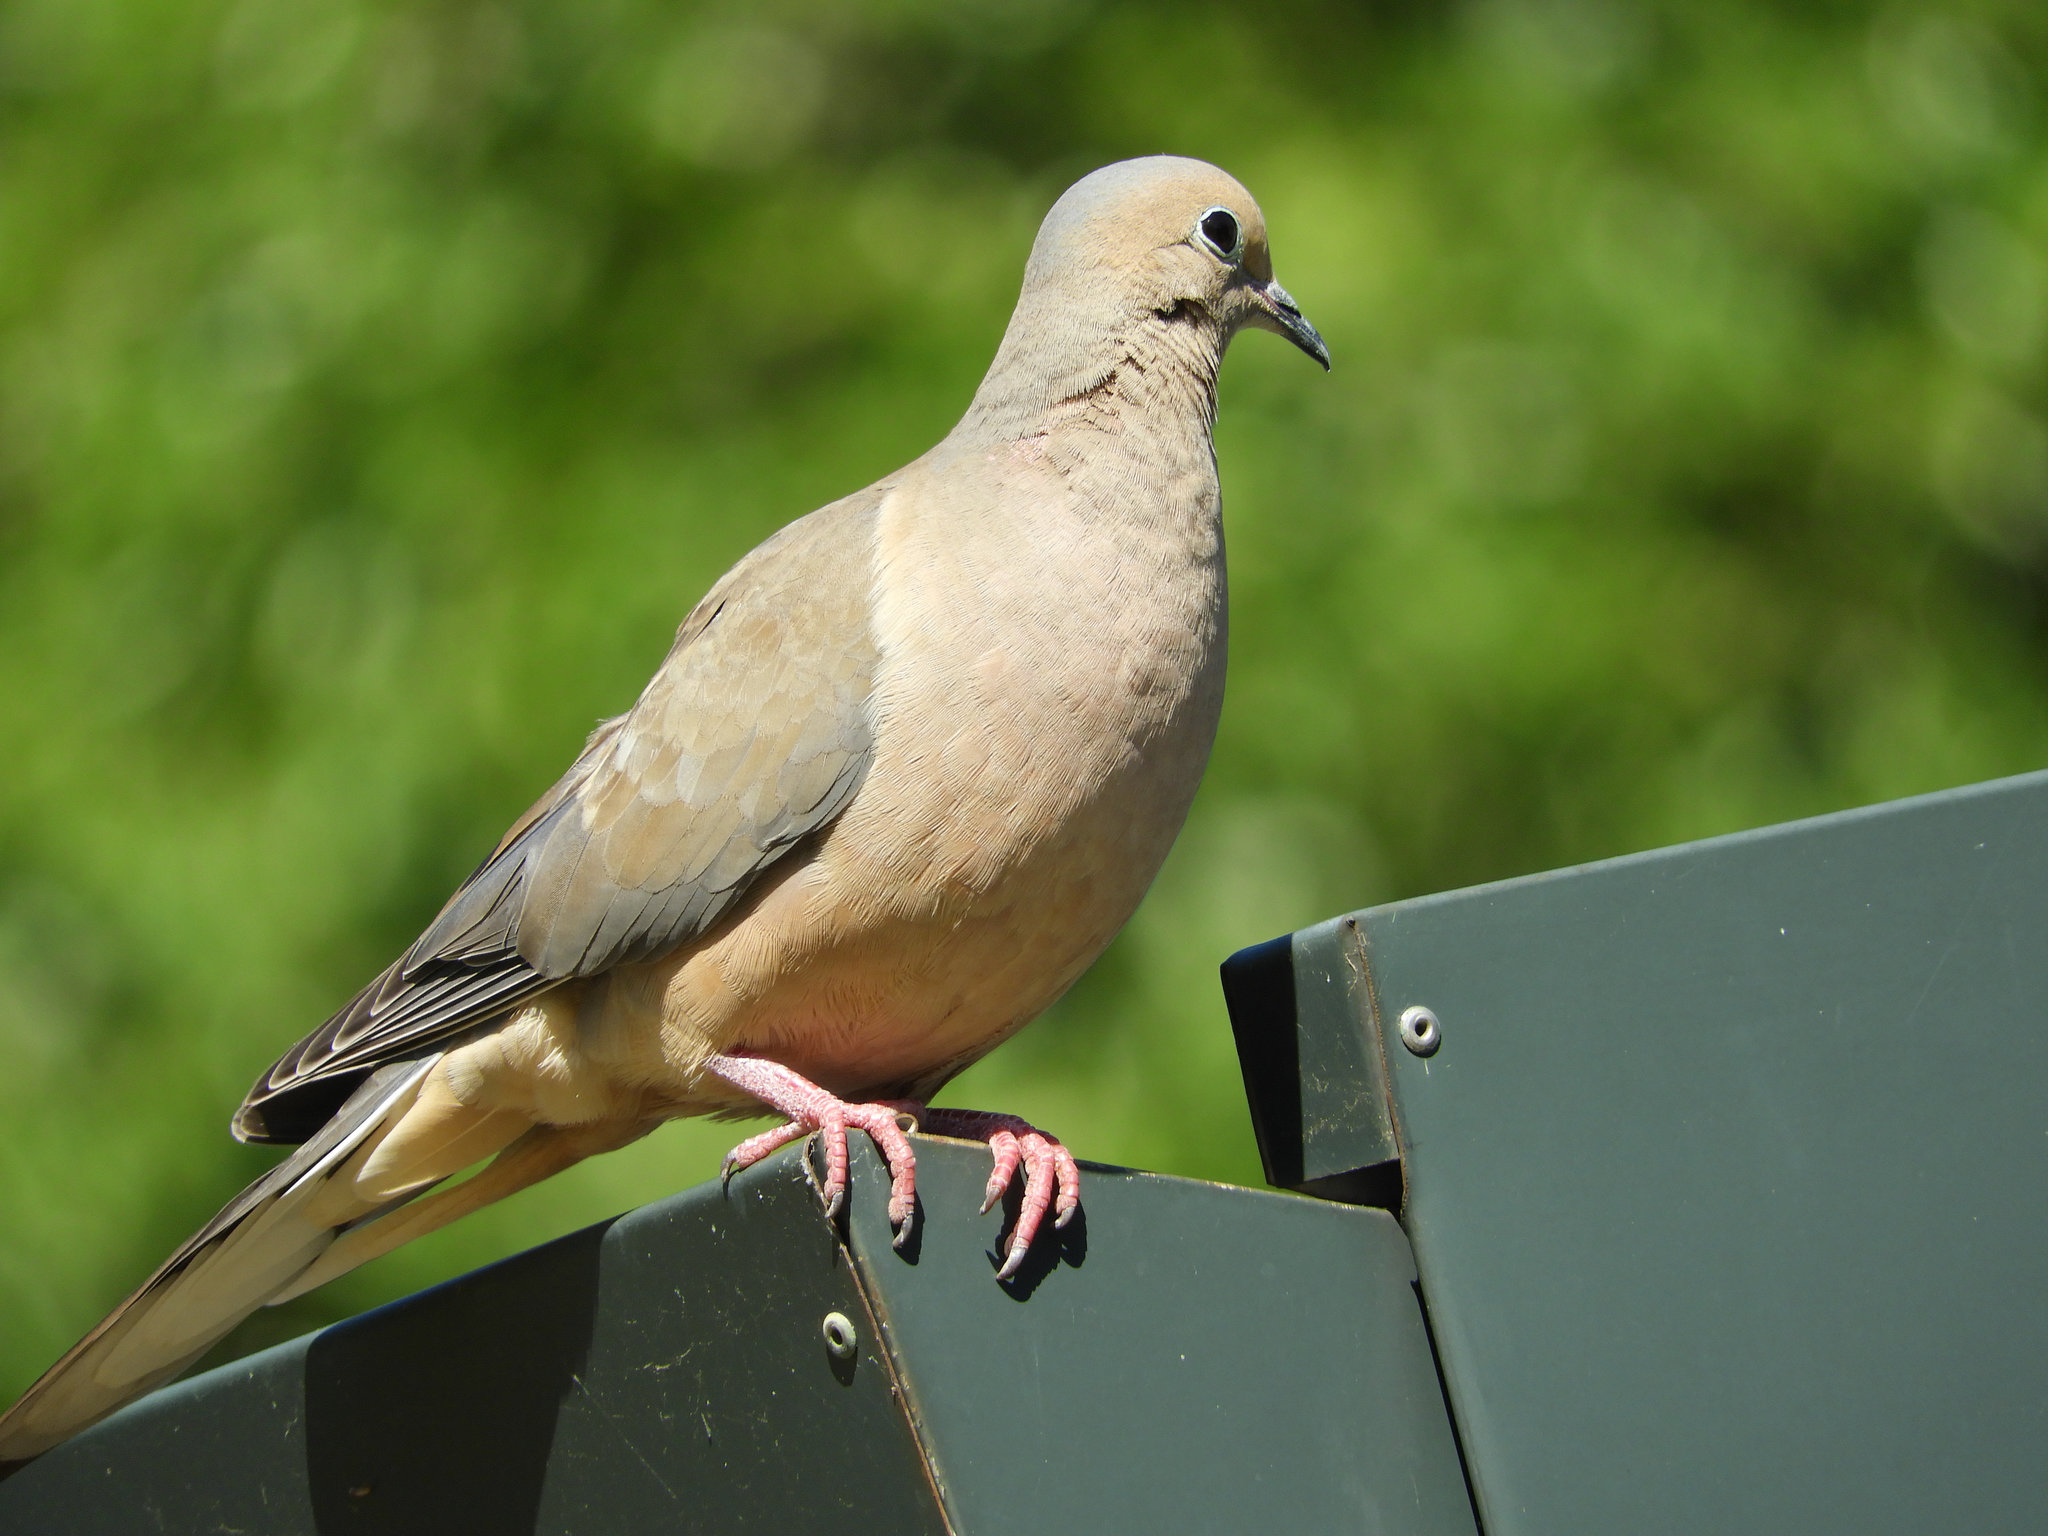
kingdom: Animalia
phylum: Chordata
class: Aves
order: Columbiformes
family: Columbidae
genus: Zenaida
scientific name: Zenaida macroura
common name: Mourning dove
